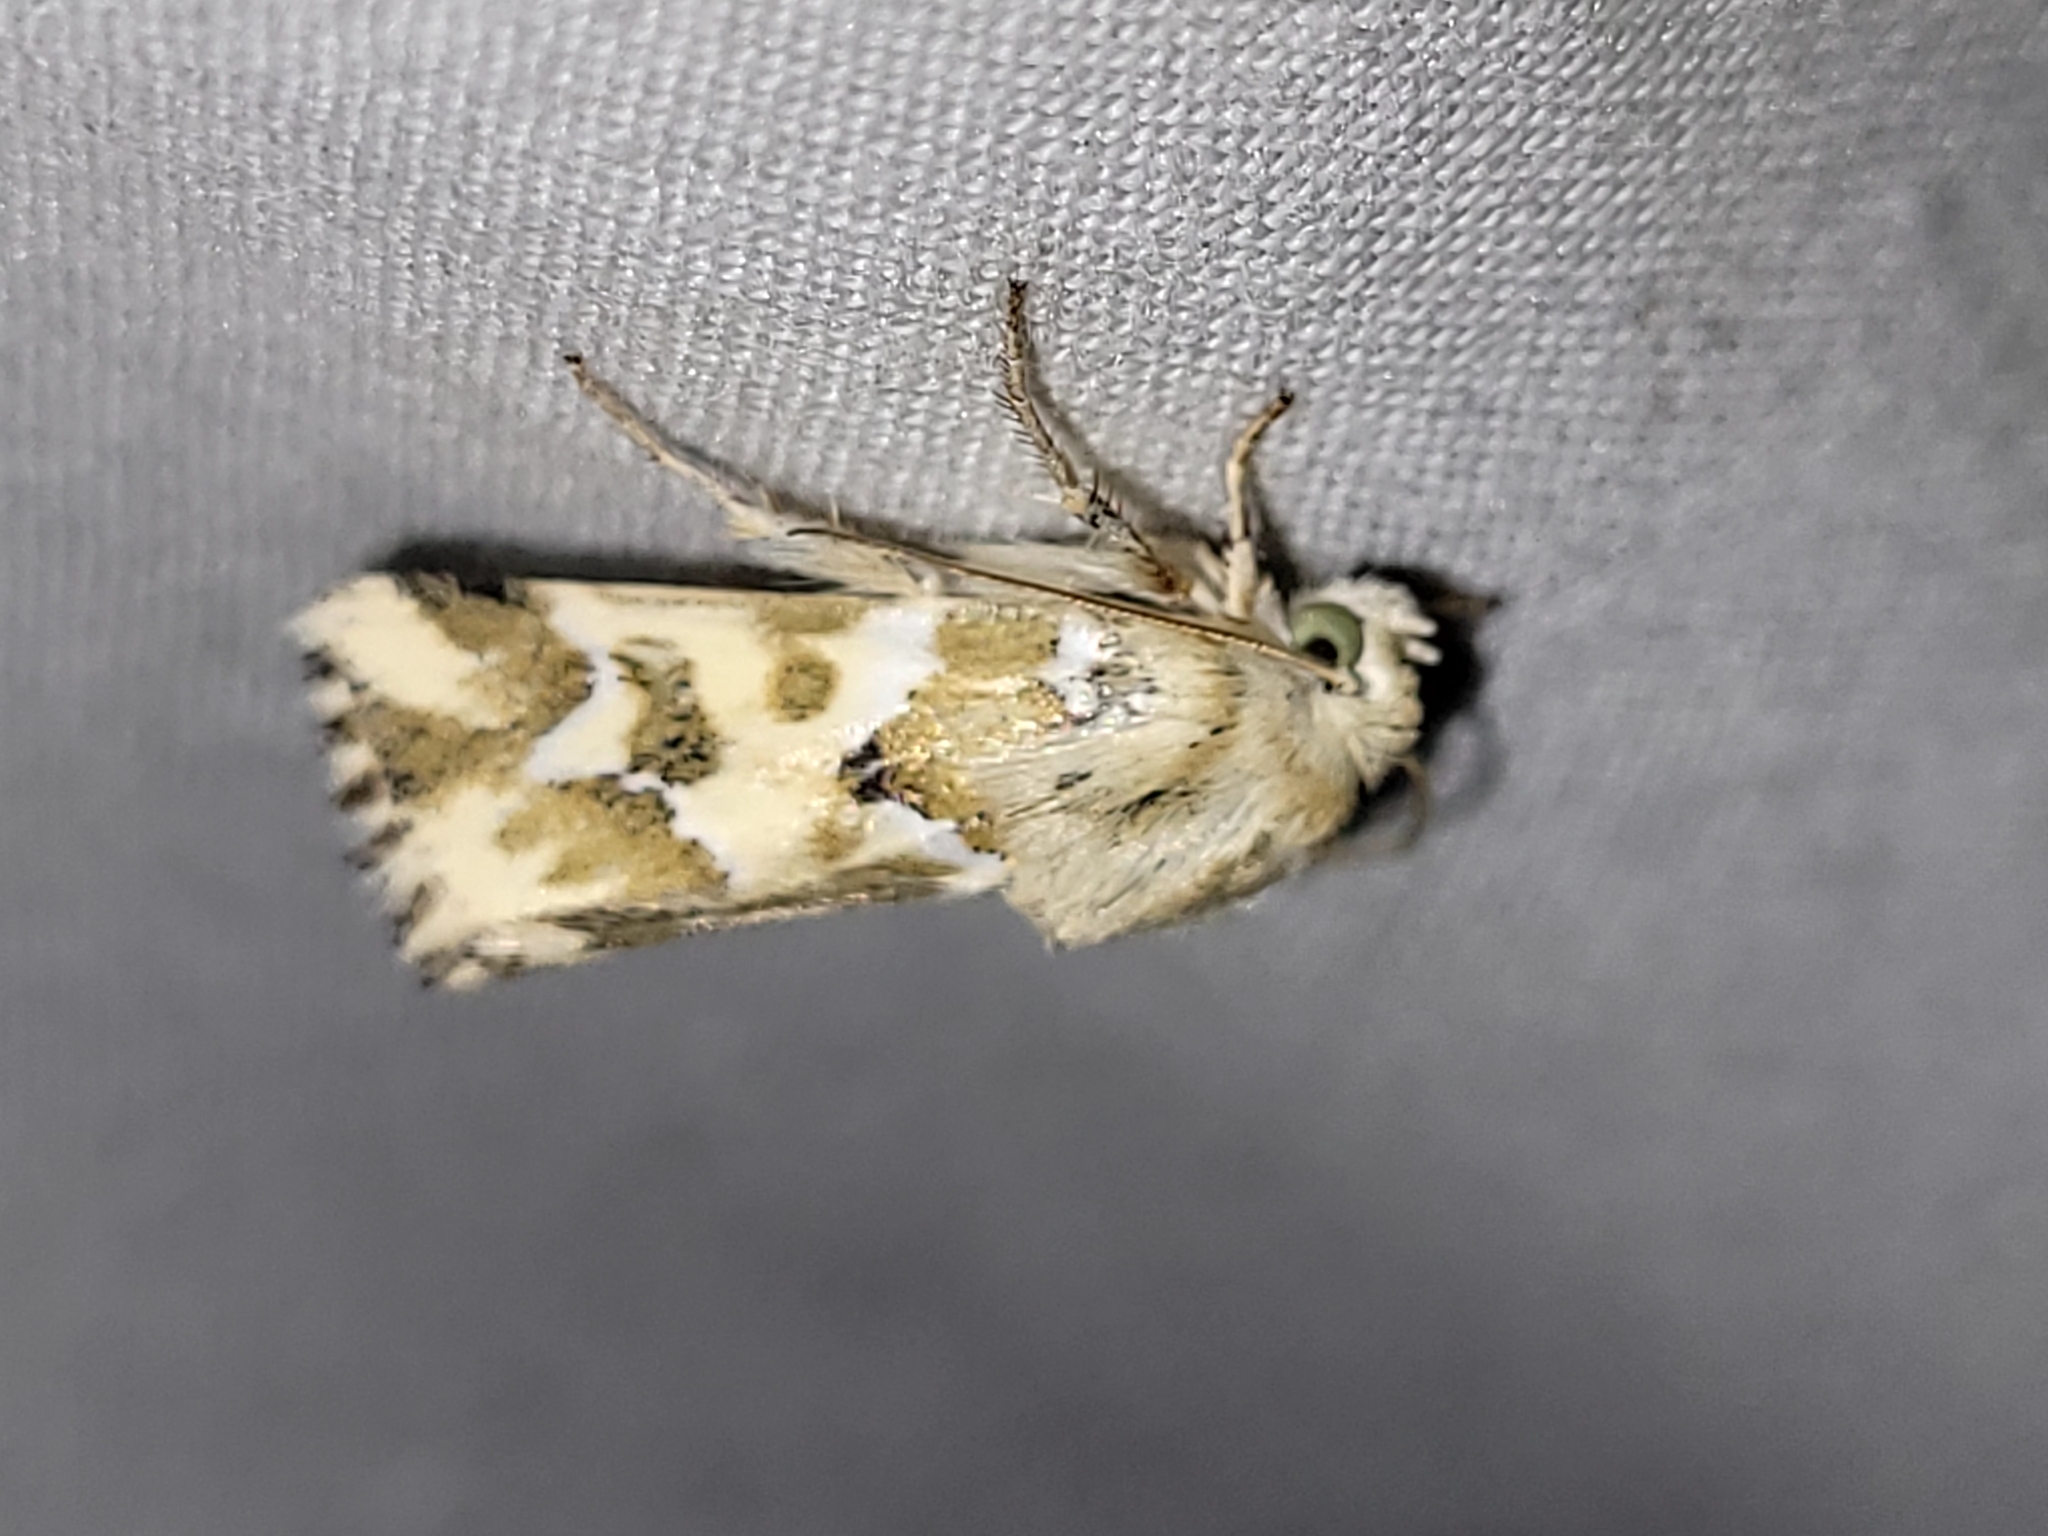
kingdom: Animalia
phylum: Arthropoda
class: Insecta
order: Lepidoptera
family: Noctuidae
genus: Schinia
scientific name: Schinia meadi
